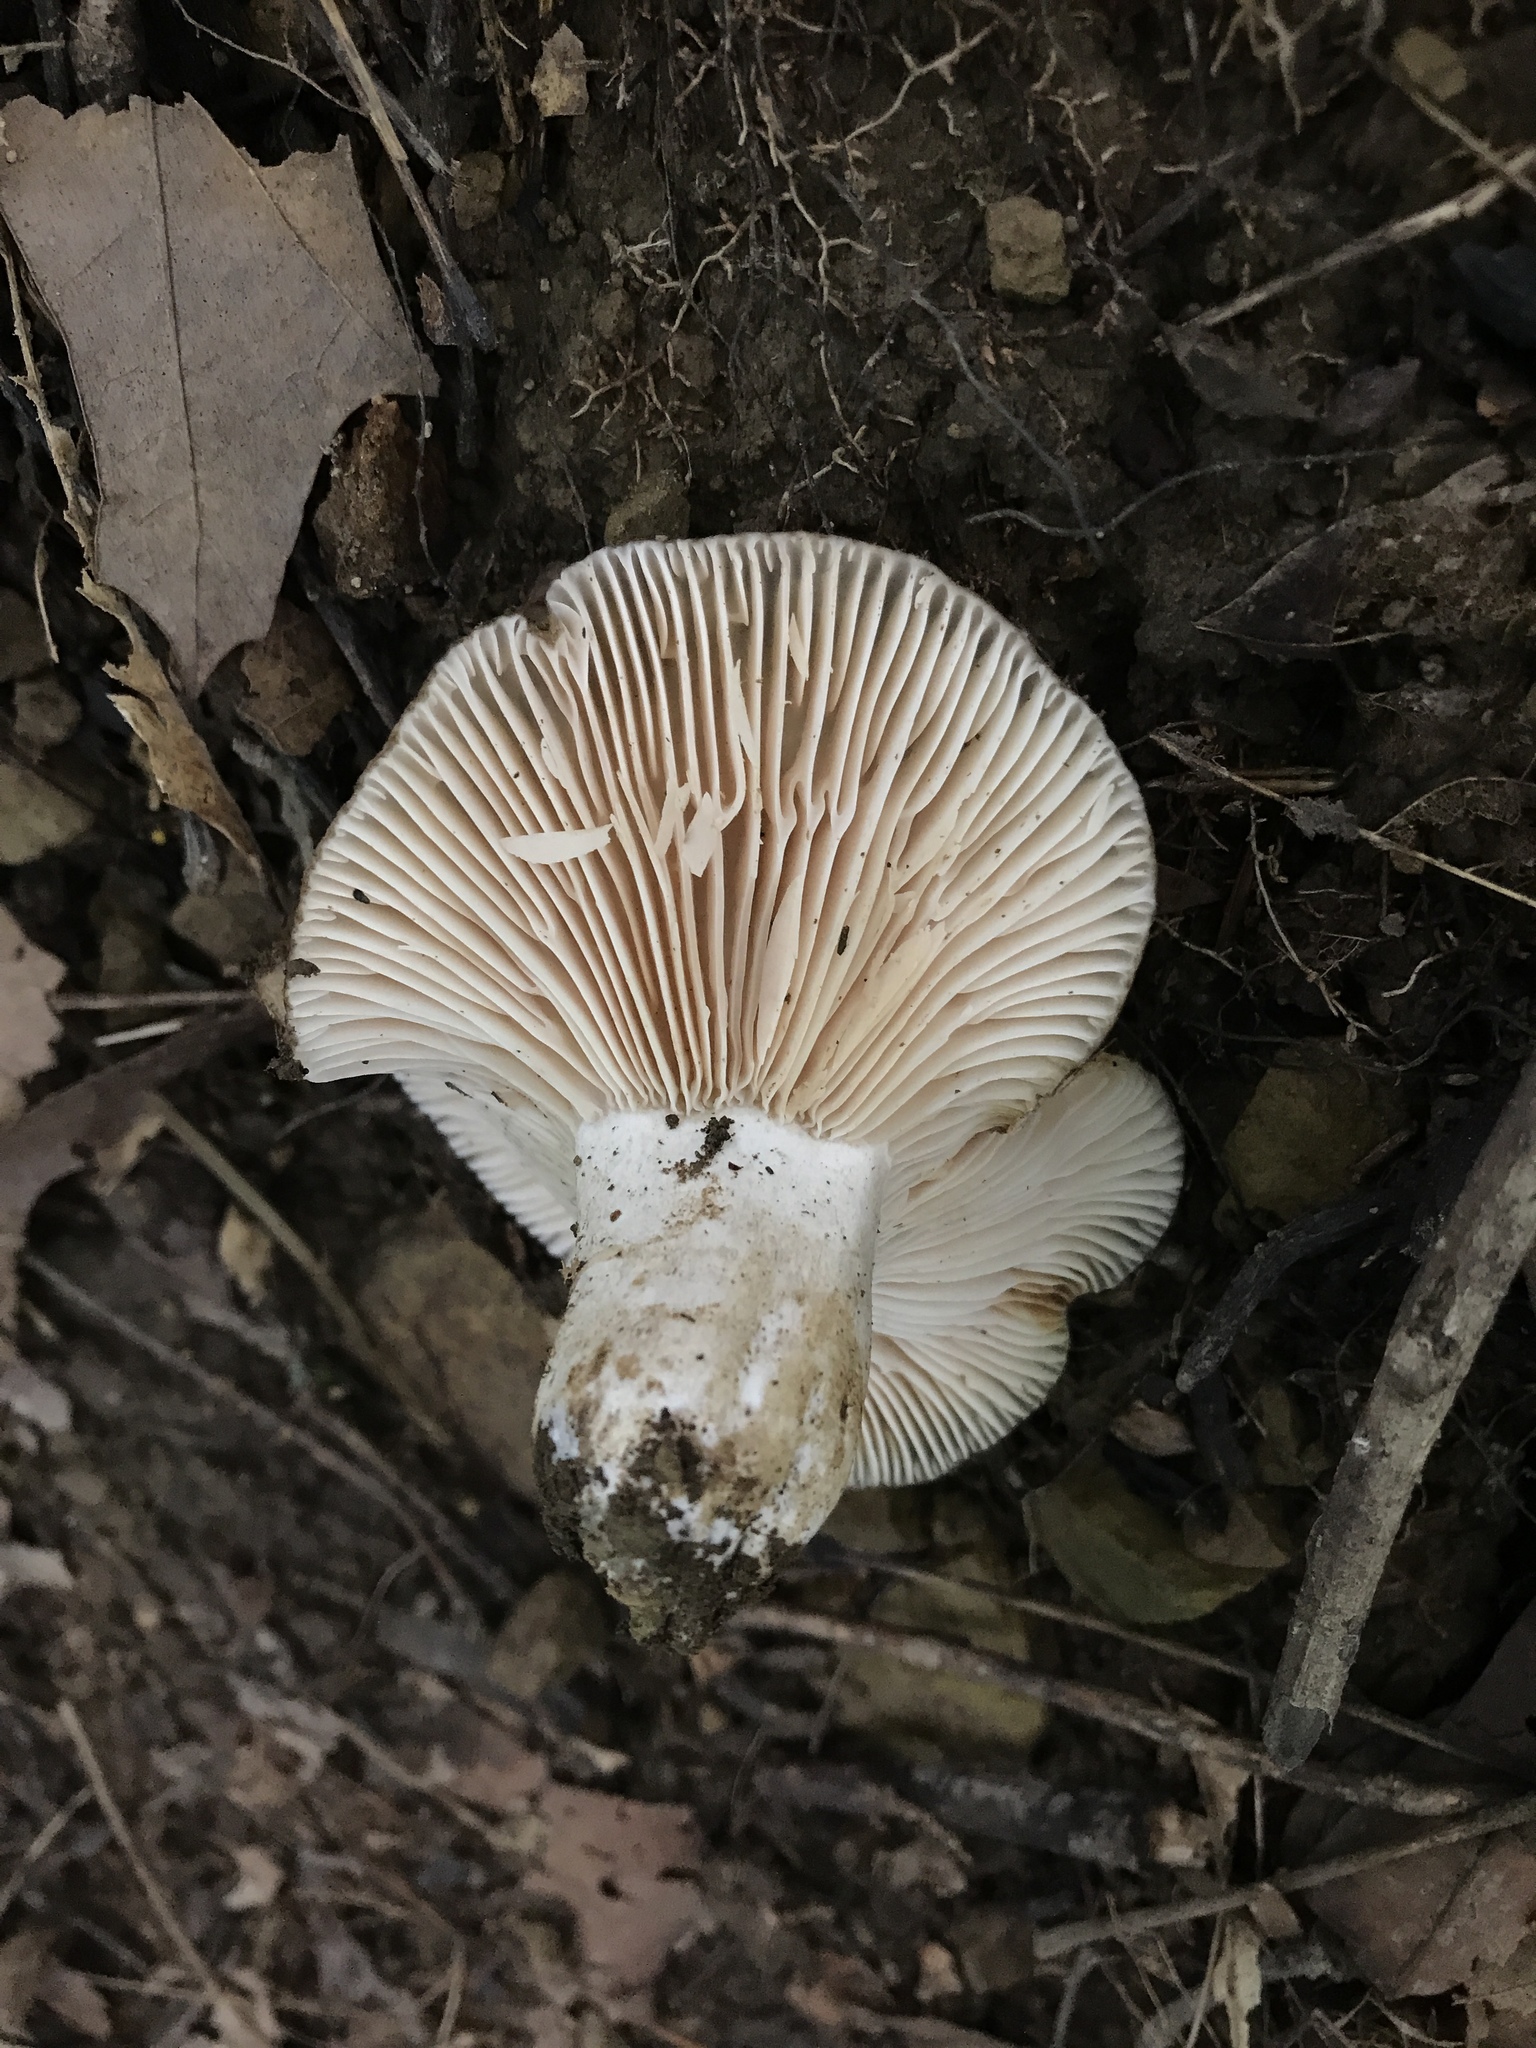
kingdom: Fungi
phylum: Basidiomycota
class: Agaricomycetes
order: Russulales
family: Russulaceae
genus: Russula
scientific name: Russula adusta
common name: Winecork brittlegill
